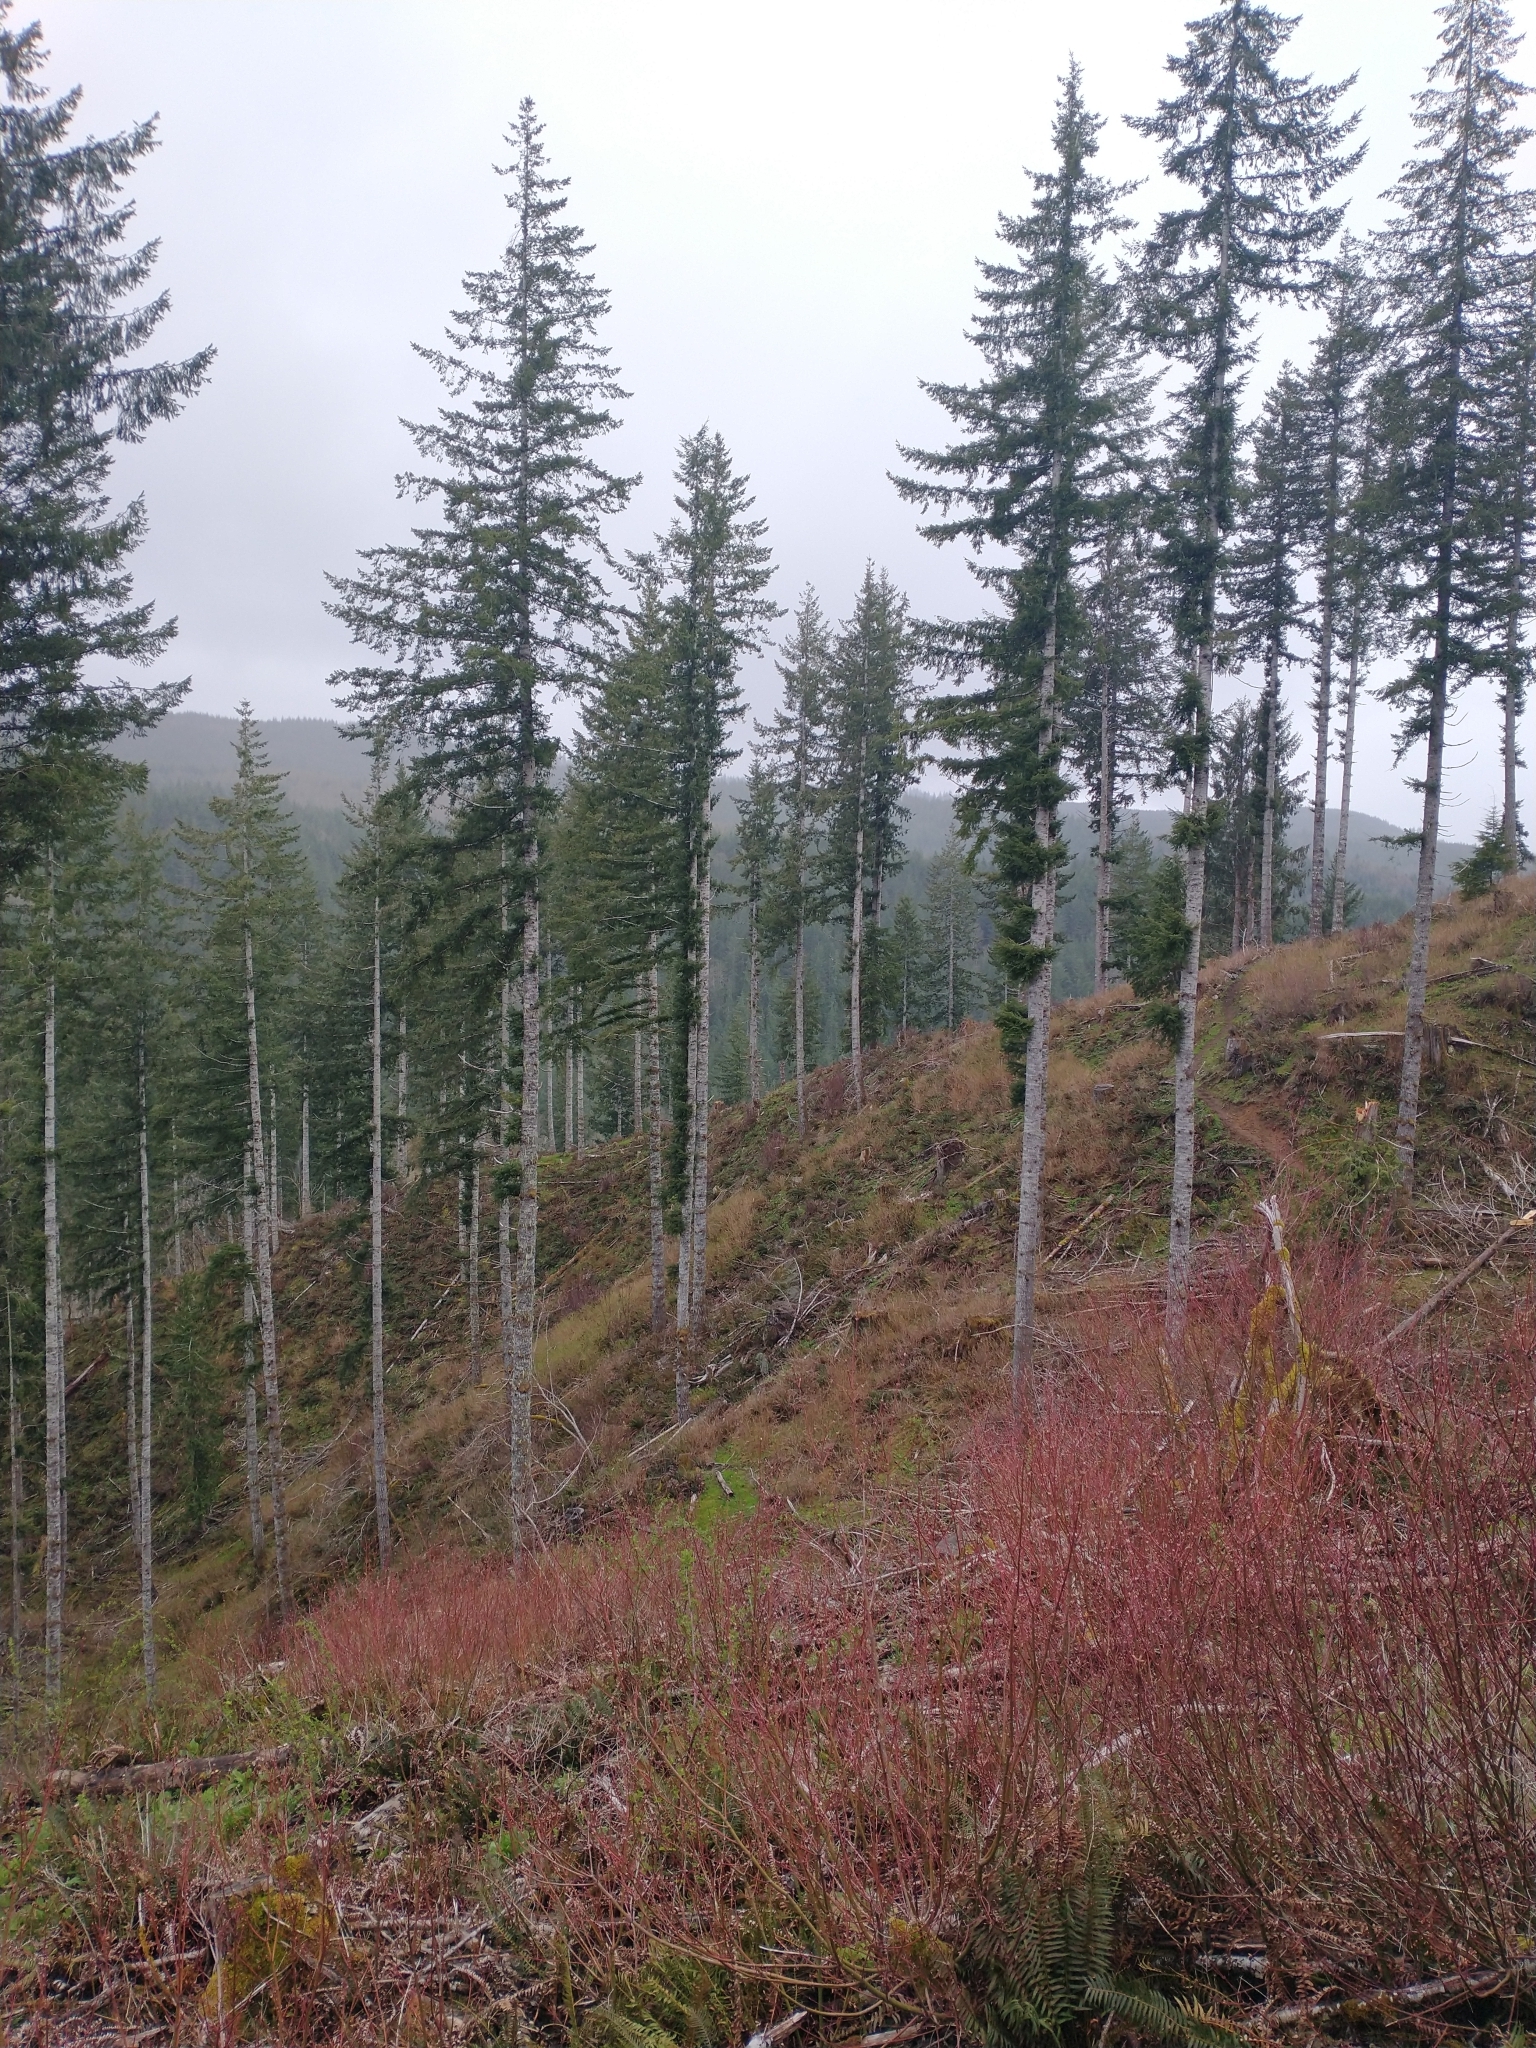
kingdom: Plantae
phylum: Tracheophyta
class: Pinopsida
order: Pinales
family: Pinaceae
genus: Pseudotsuga
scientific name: Pseudotsuga menziesii
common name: Douglas fir
